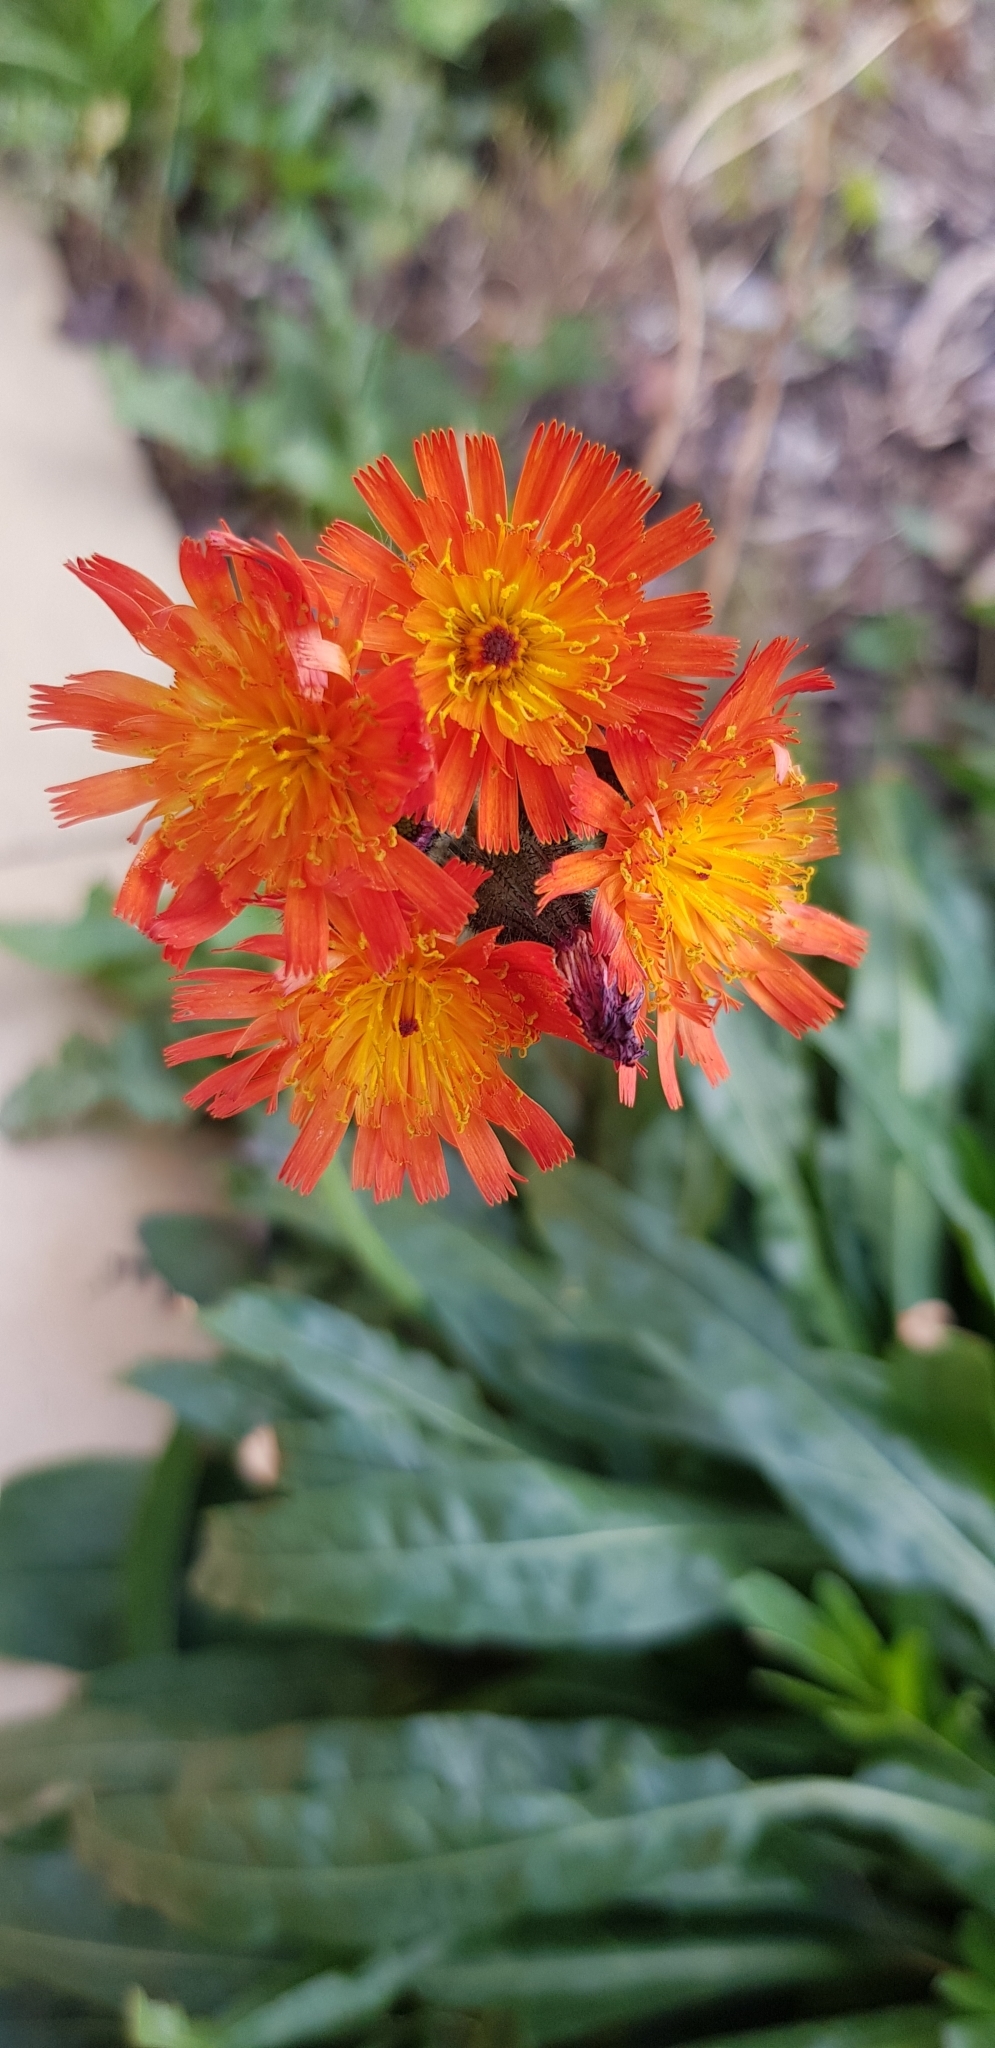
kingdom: Plantae
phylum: Tracheophyta
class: Magnoliopsida
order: Asterales
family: Asteraceae
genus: Pilosella
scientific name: Pilosella aurantiaca
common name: Fox-and-cubs
